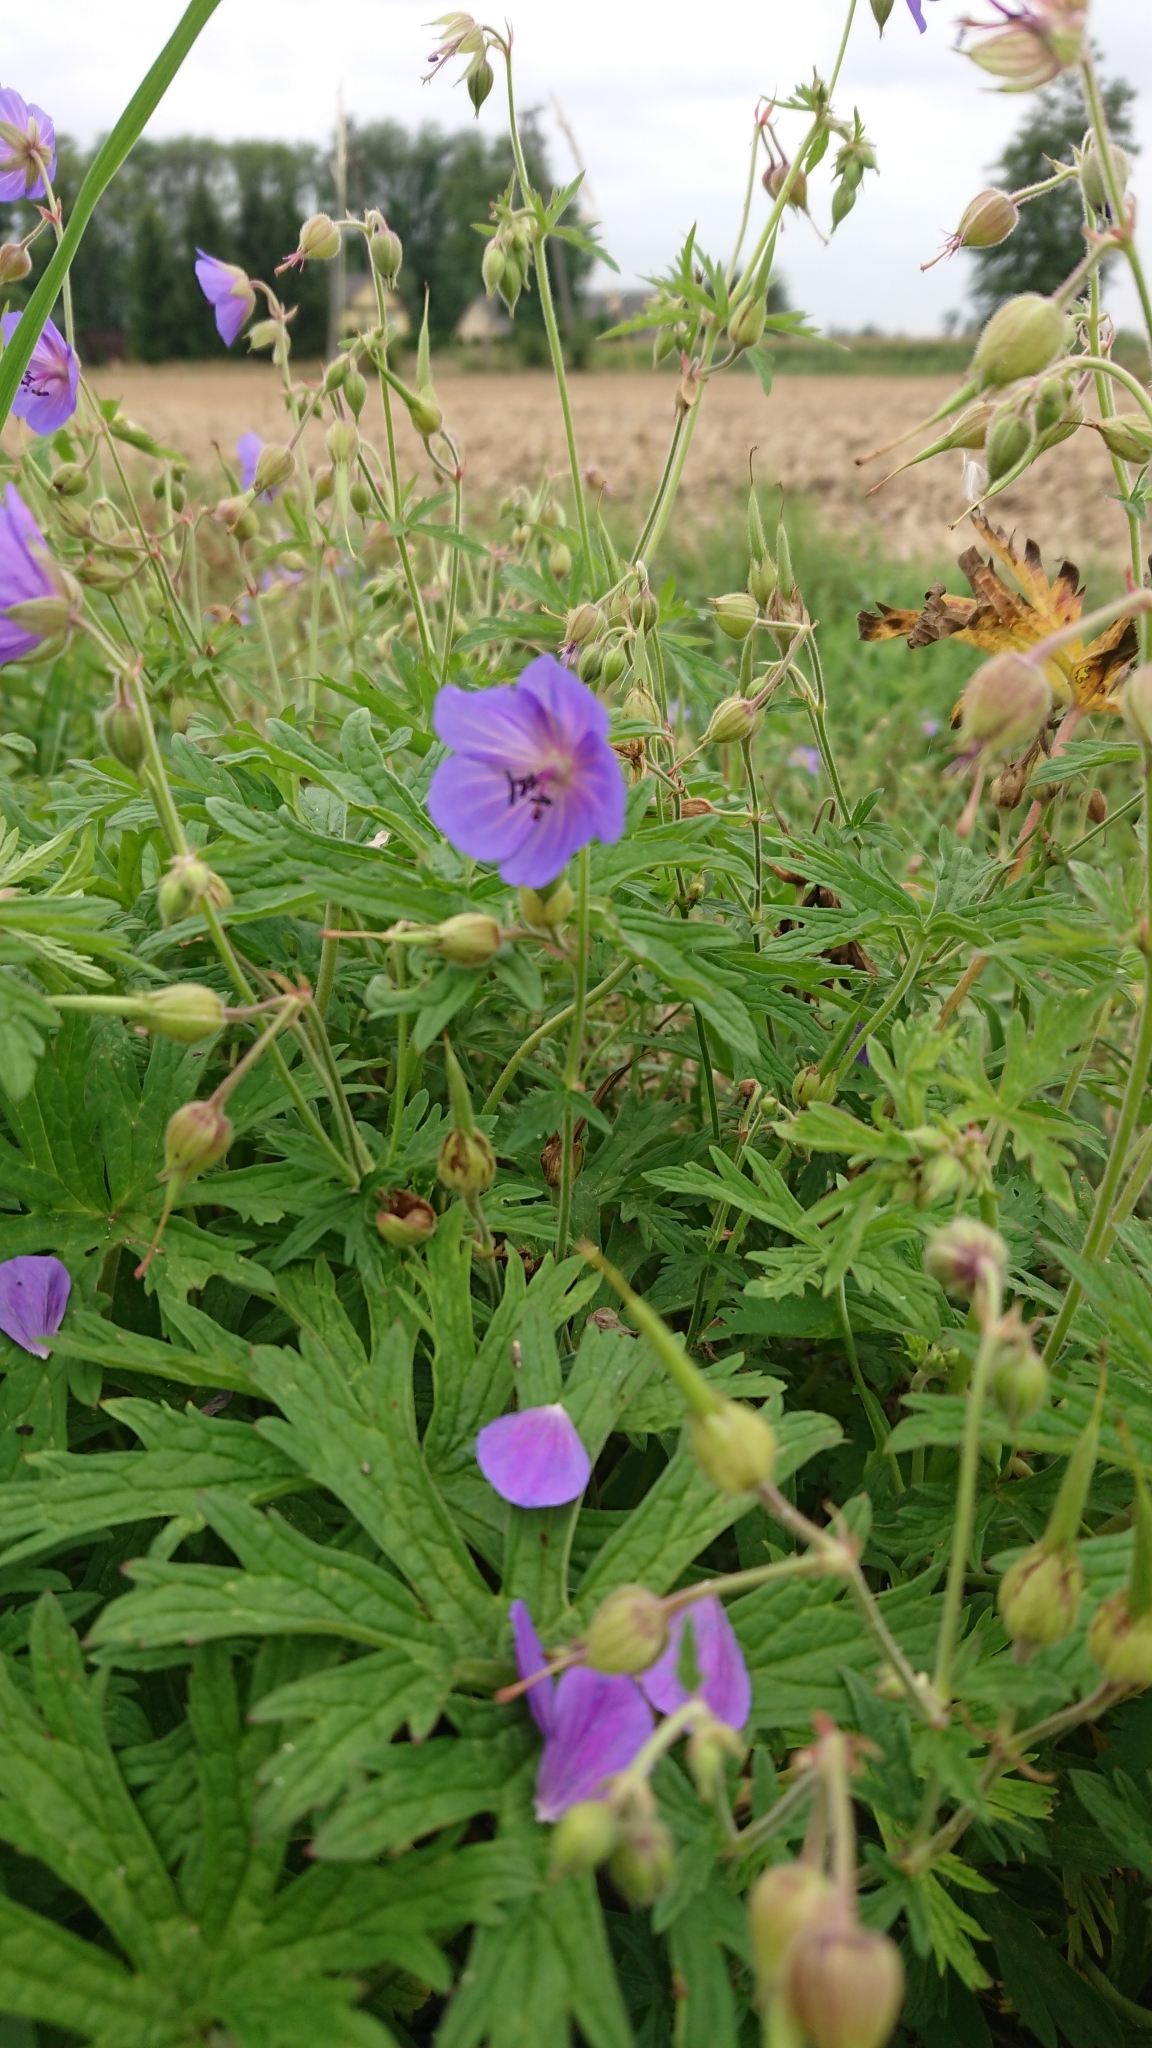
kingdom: Plantae
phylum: Tracheophyta
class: Magnoliopsida
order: Geraniales
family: Geraniaceae
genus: Geranium
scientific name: Geranium pratense
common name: Meadow crane's-bill
